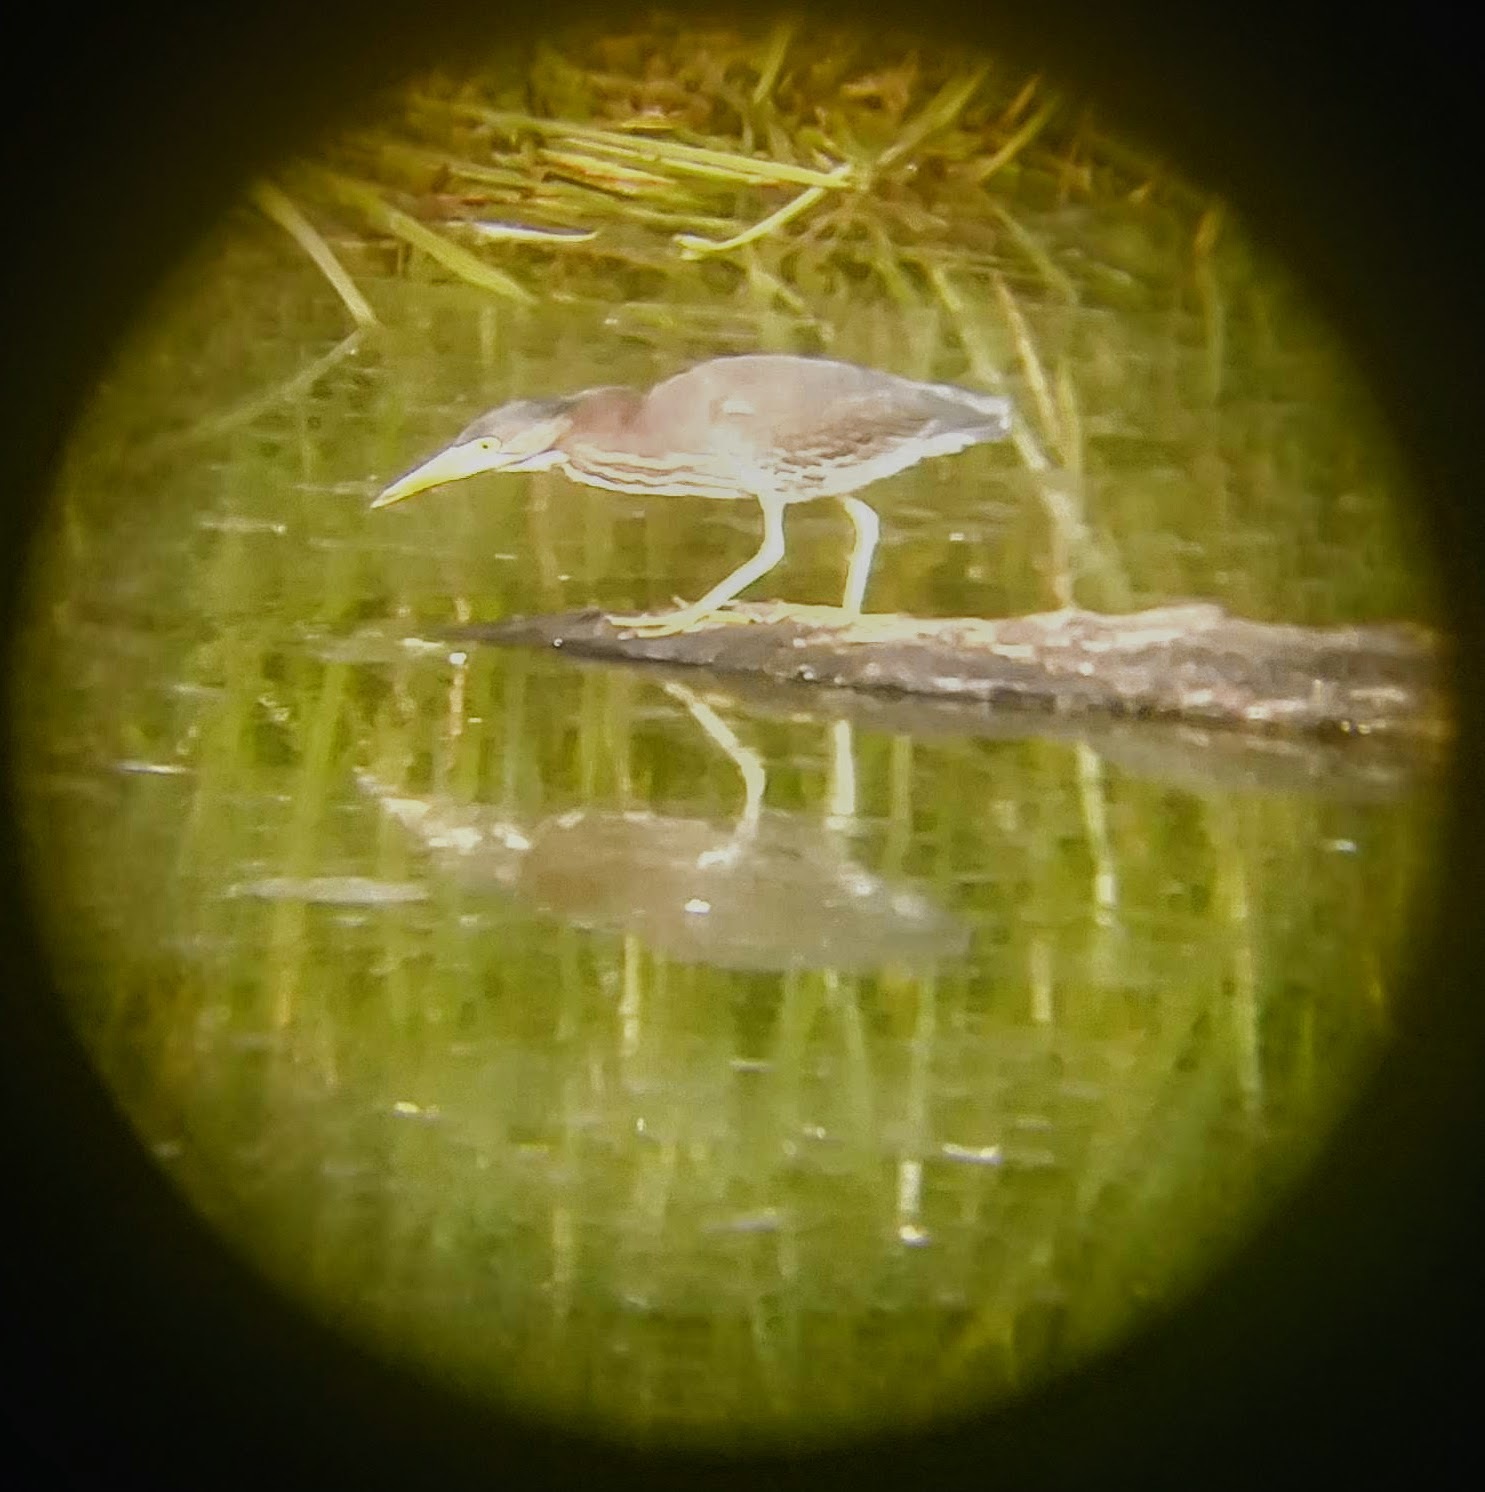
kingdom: Animalia
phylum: Chordata
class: Aves
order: Pelecaniformes
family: Ardeidae
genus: Butorides
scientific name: Butorides virescens
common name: Green heron
